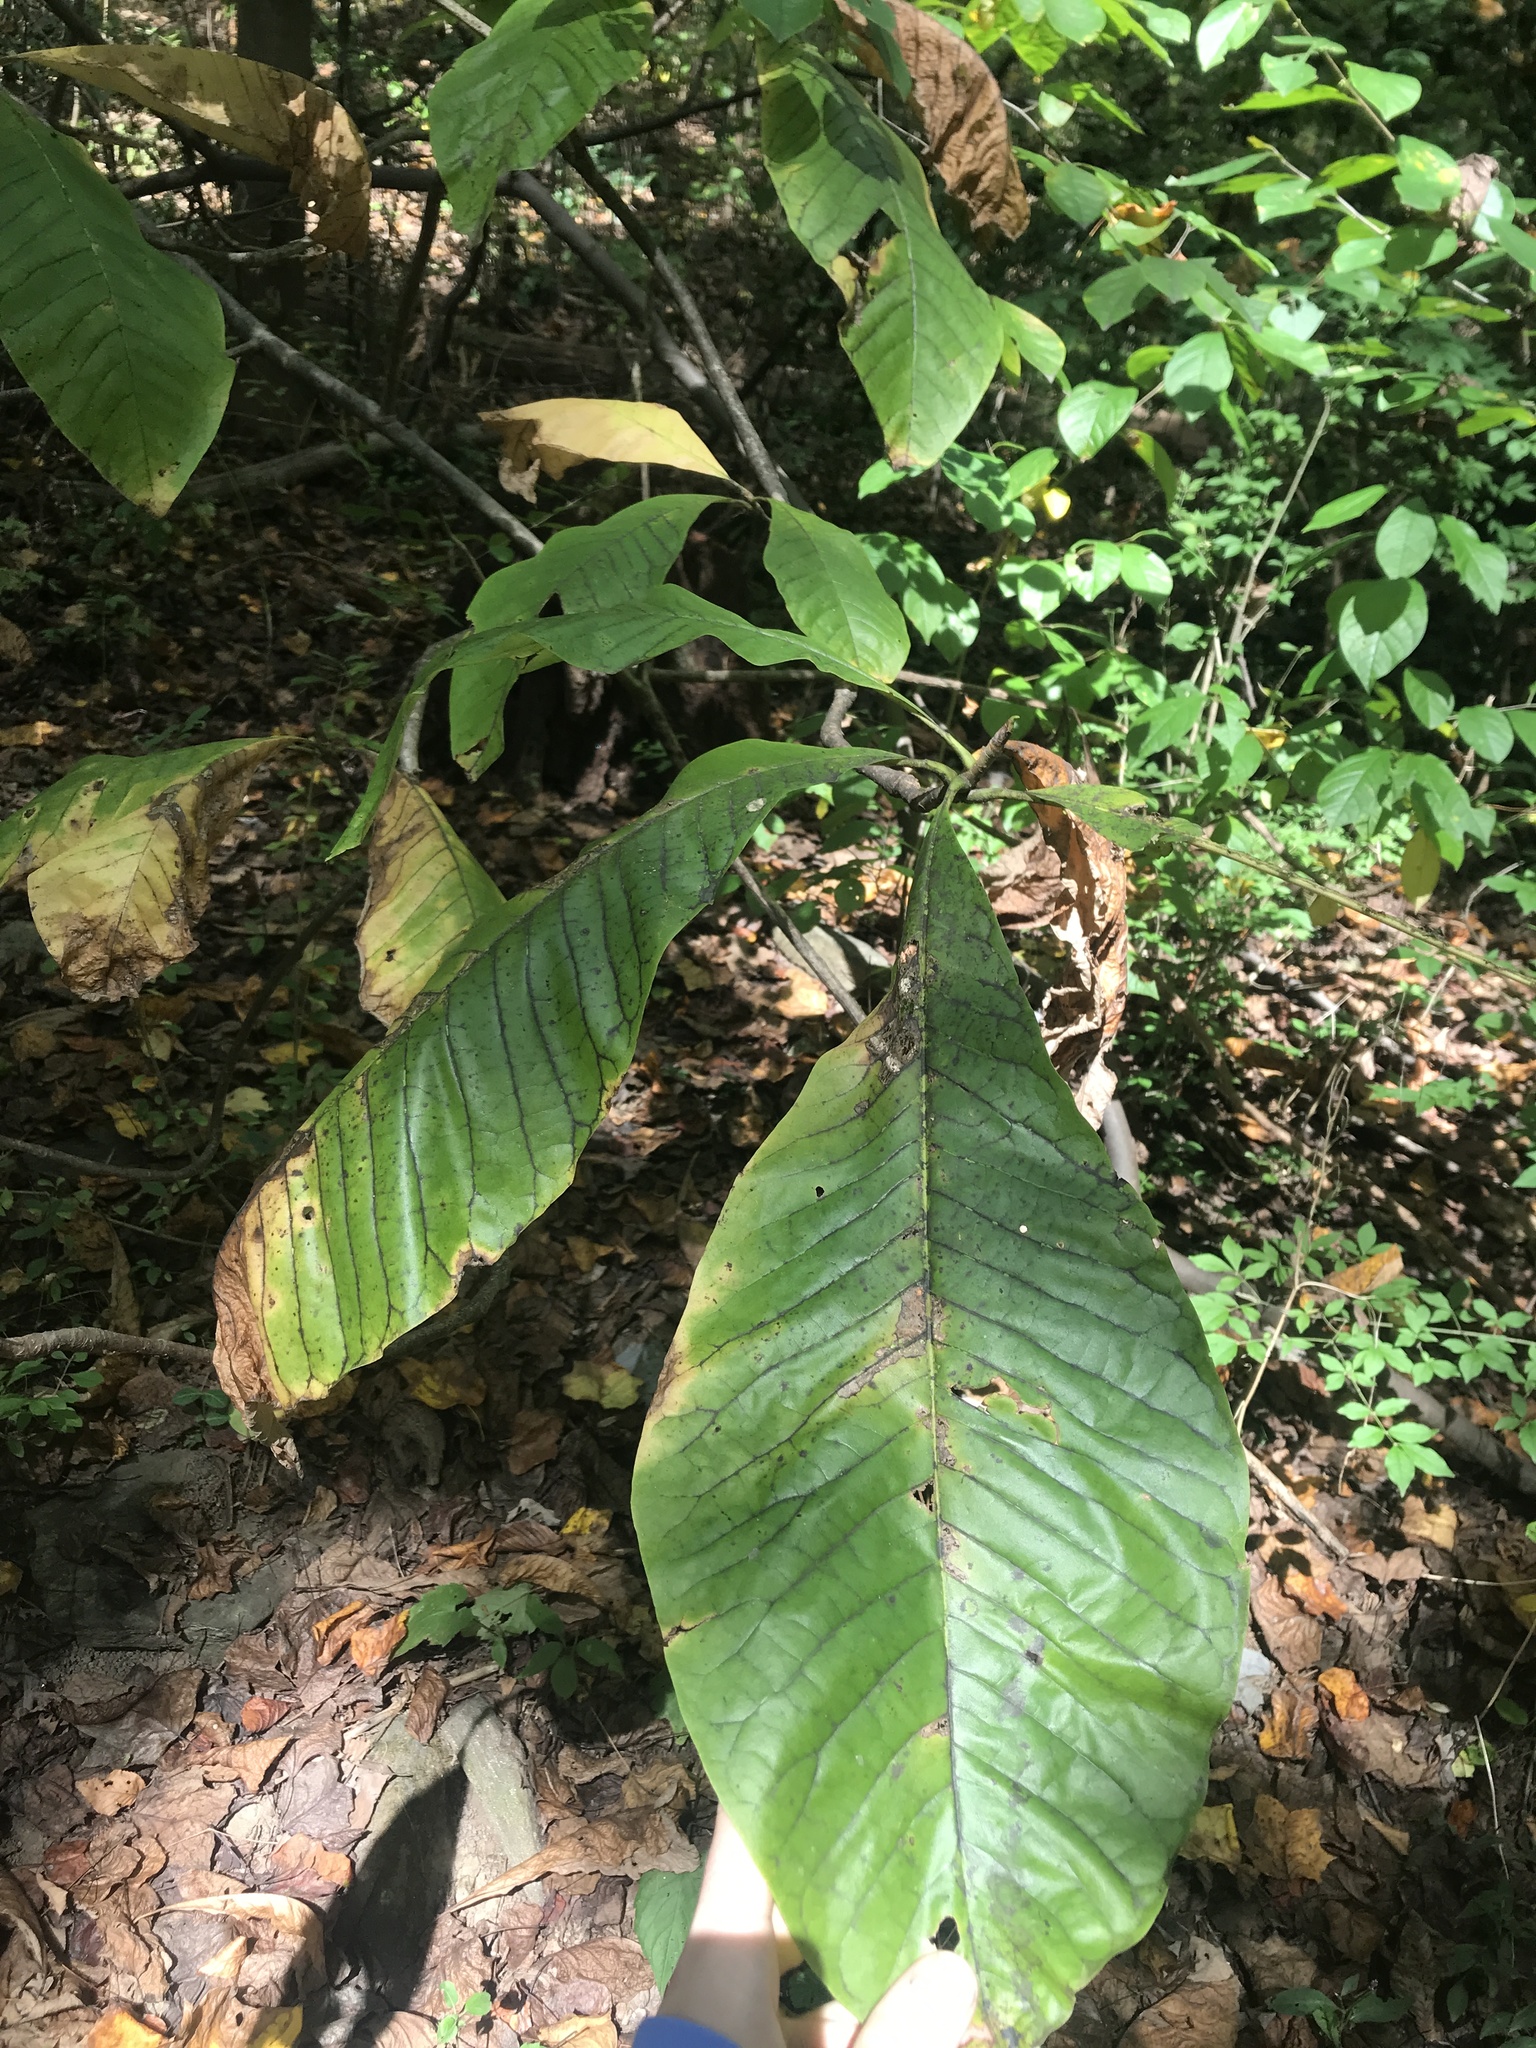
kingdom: Plantae
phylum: Tracheophyta
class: Magnoliopsida
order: Magnoliales
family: Magnoliaceae
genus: Magnolia
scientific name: Magnolia tripetala
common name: Umbrella magnolia
